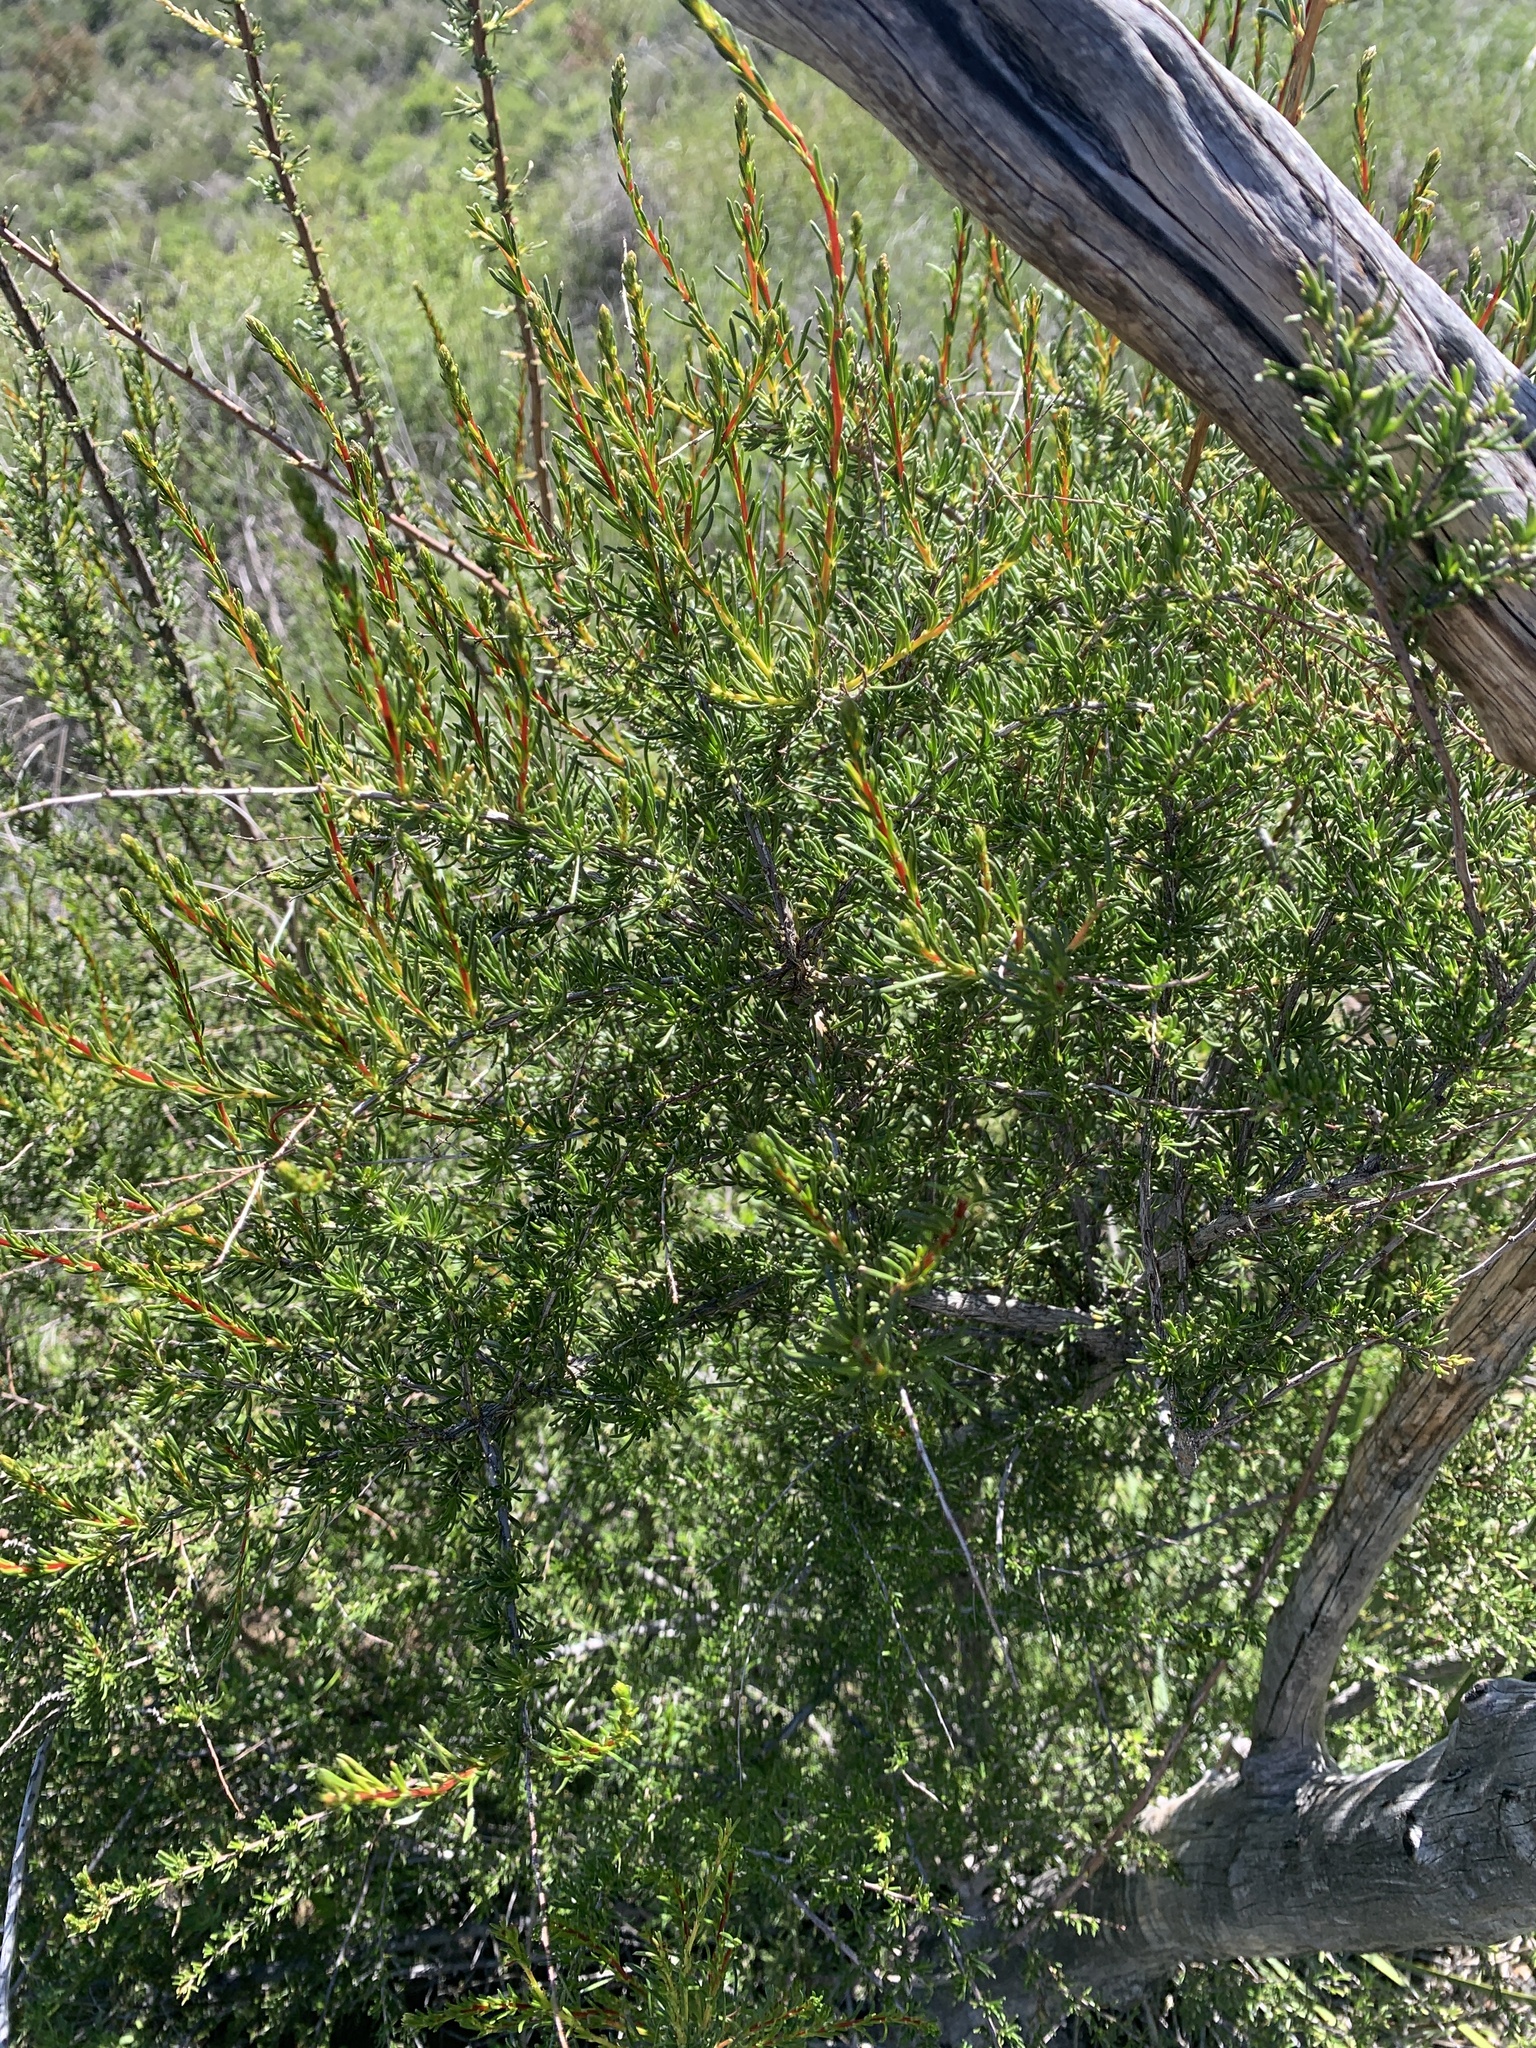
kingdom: Plantae
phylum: Tracheophyta
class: Magnoliopsida
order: Rosales
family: Rosaceae
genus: Adenostoma
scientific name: Adenostoma fasciculatum
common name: Chamise
